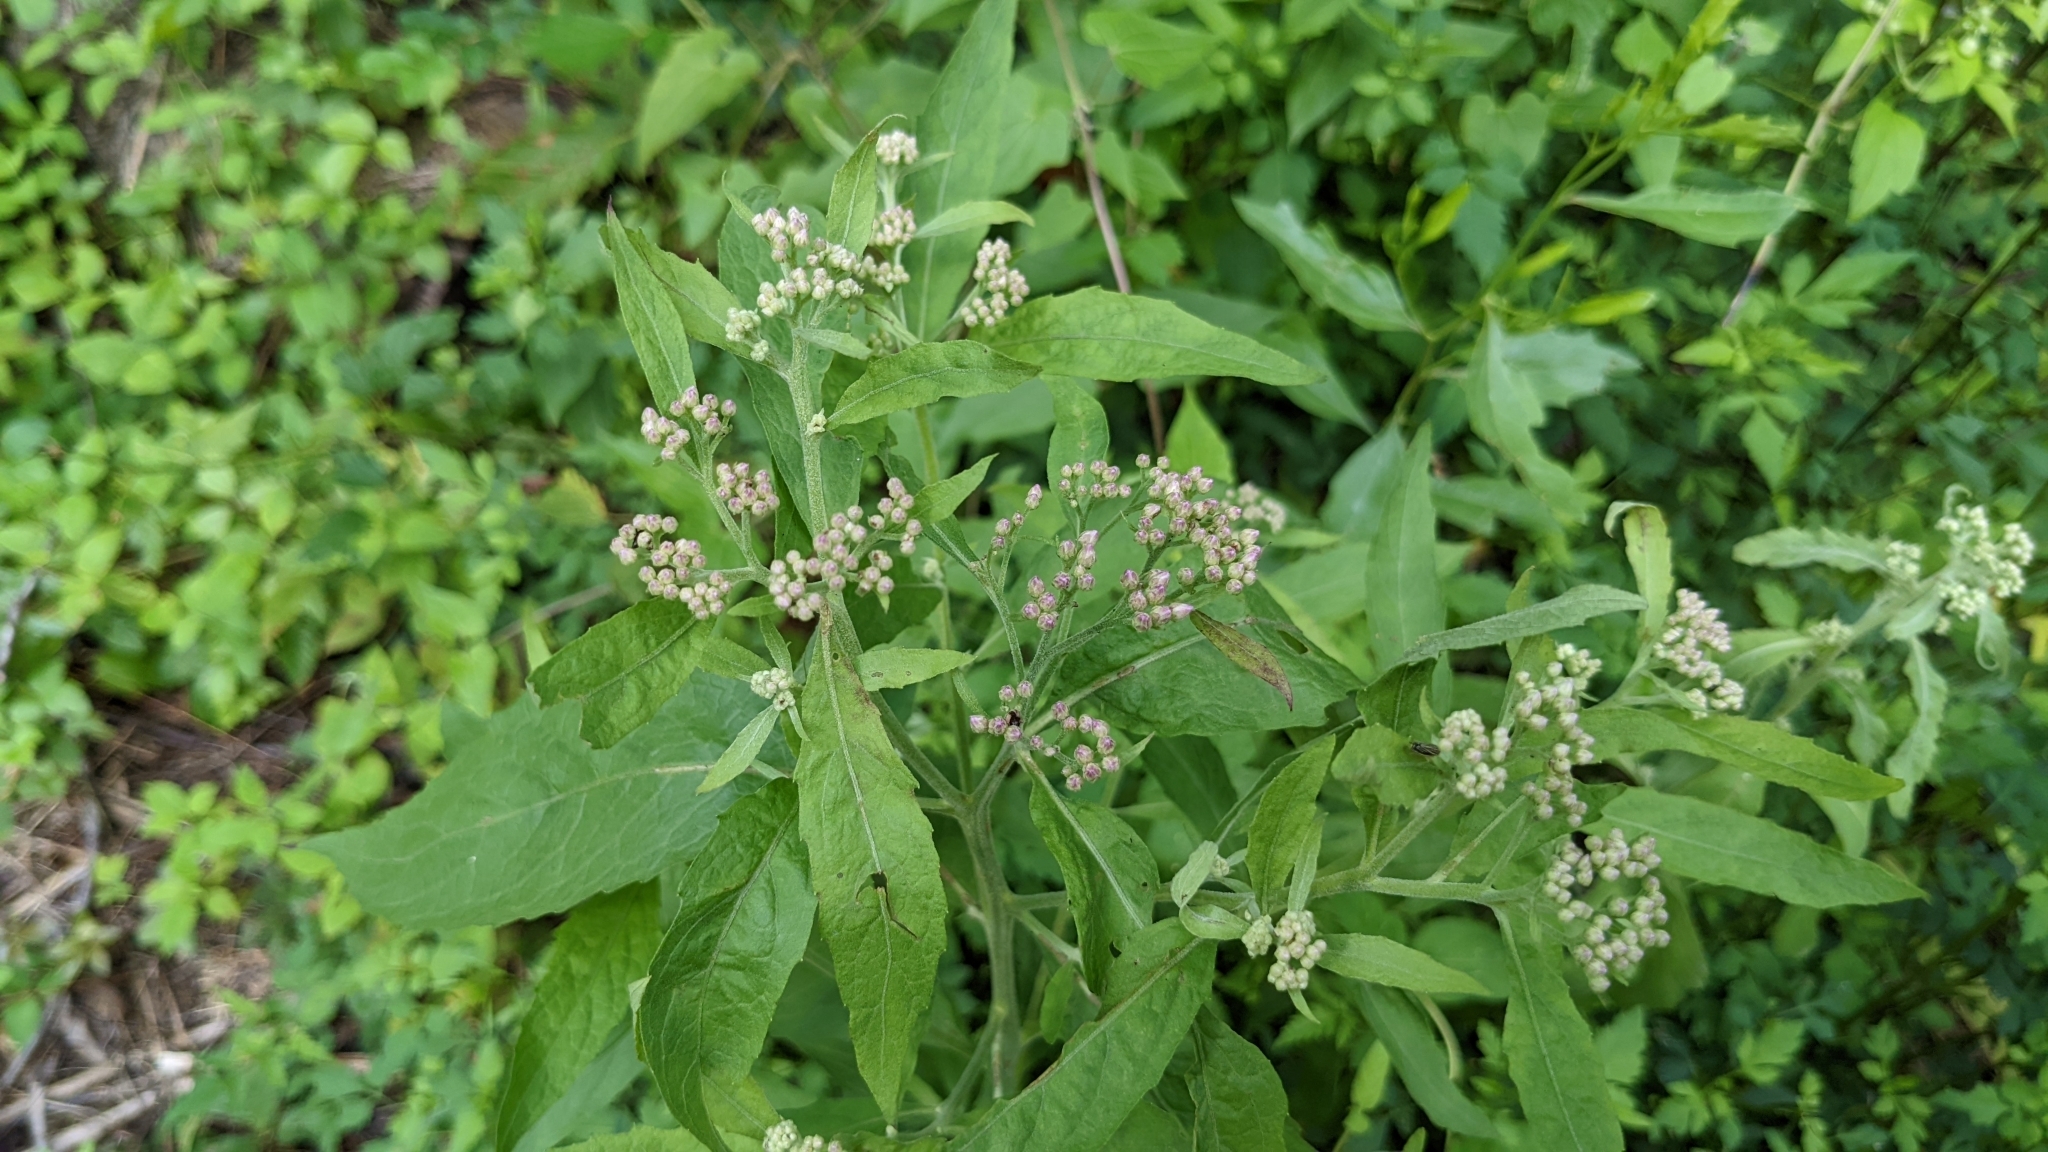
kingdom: Plantae
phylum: Tracheophyta
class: Magnoliopsida
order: Asterales
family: Asteraceae
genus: Pluchea
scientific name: Pluchea camphorata
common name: Camphor pluchea
